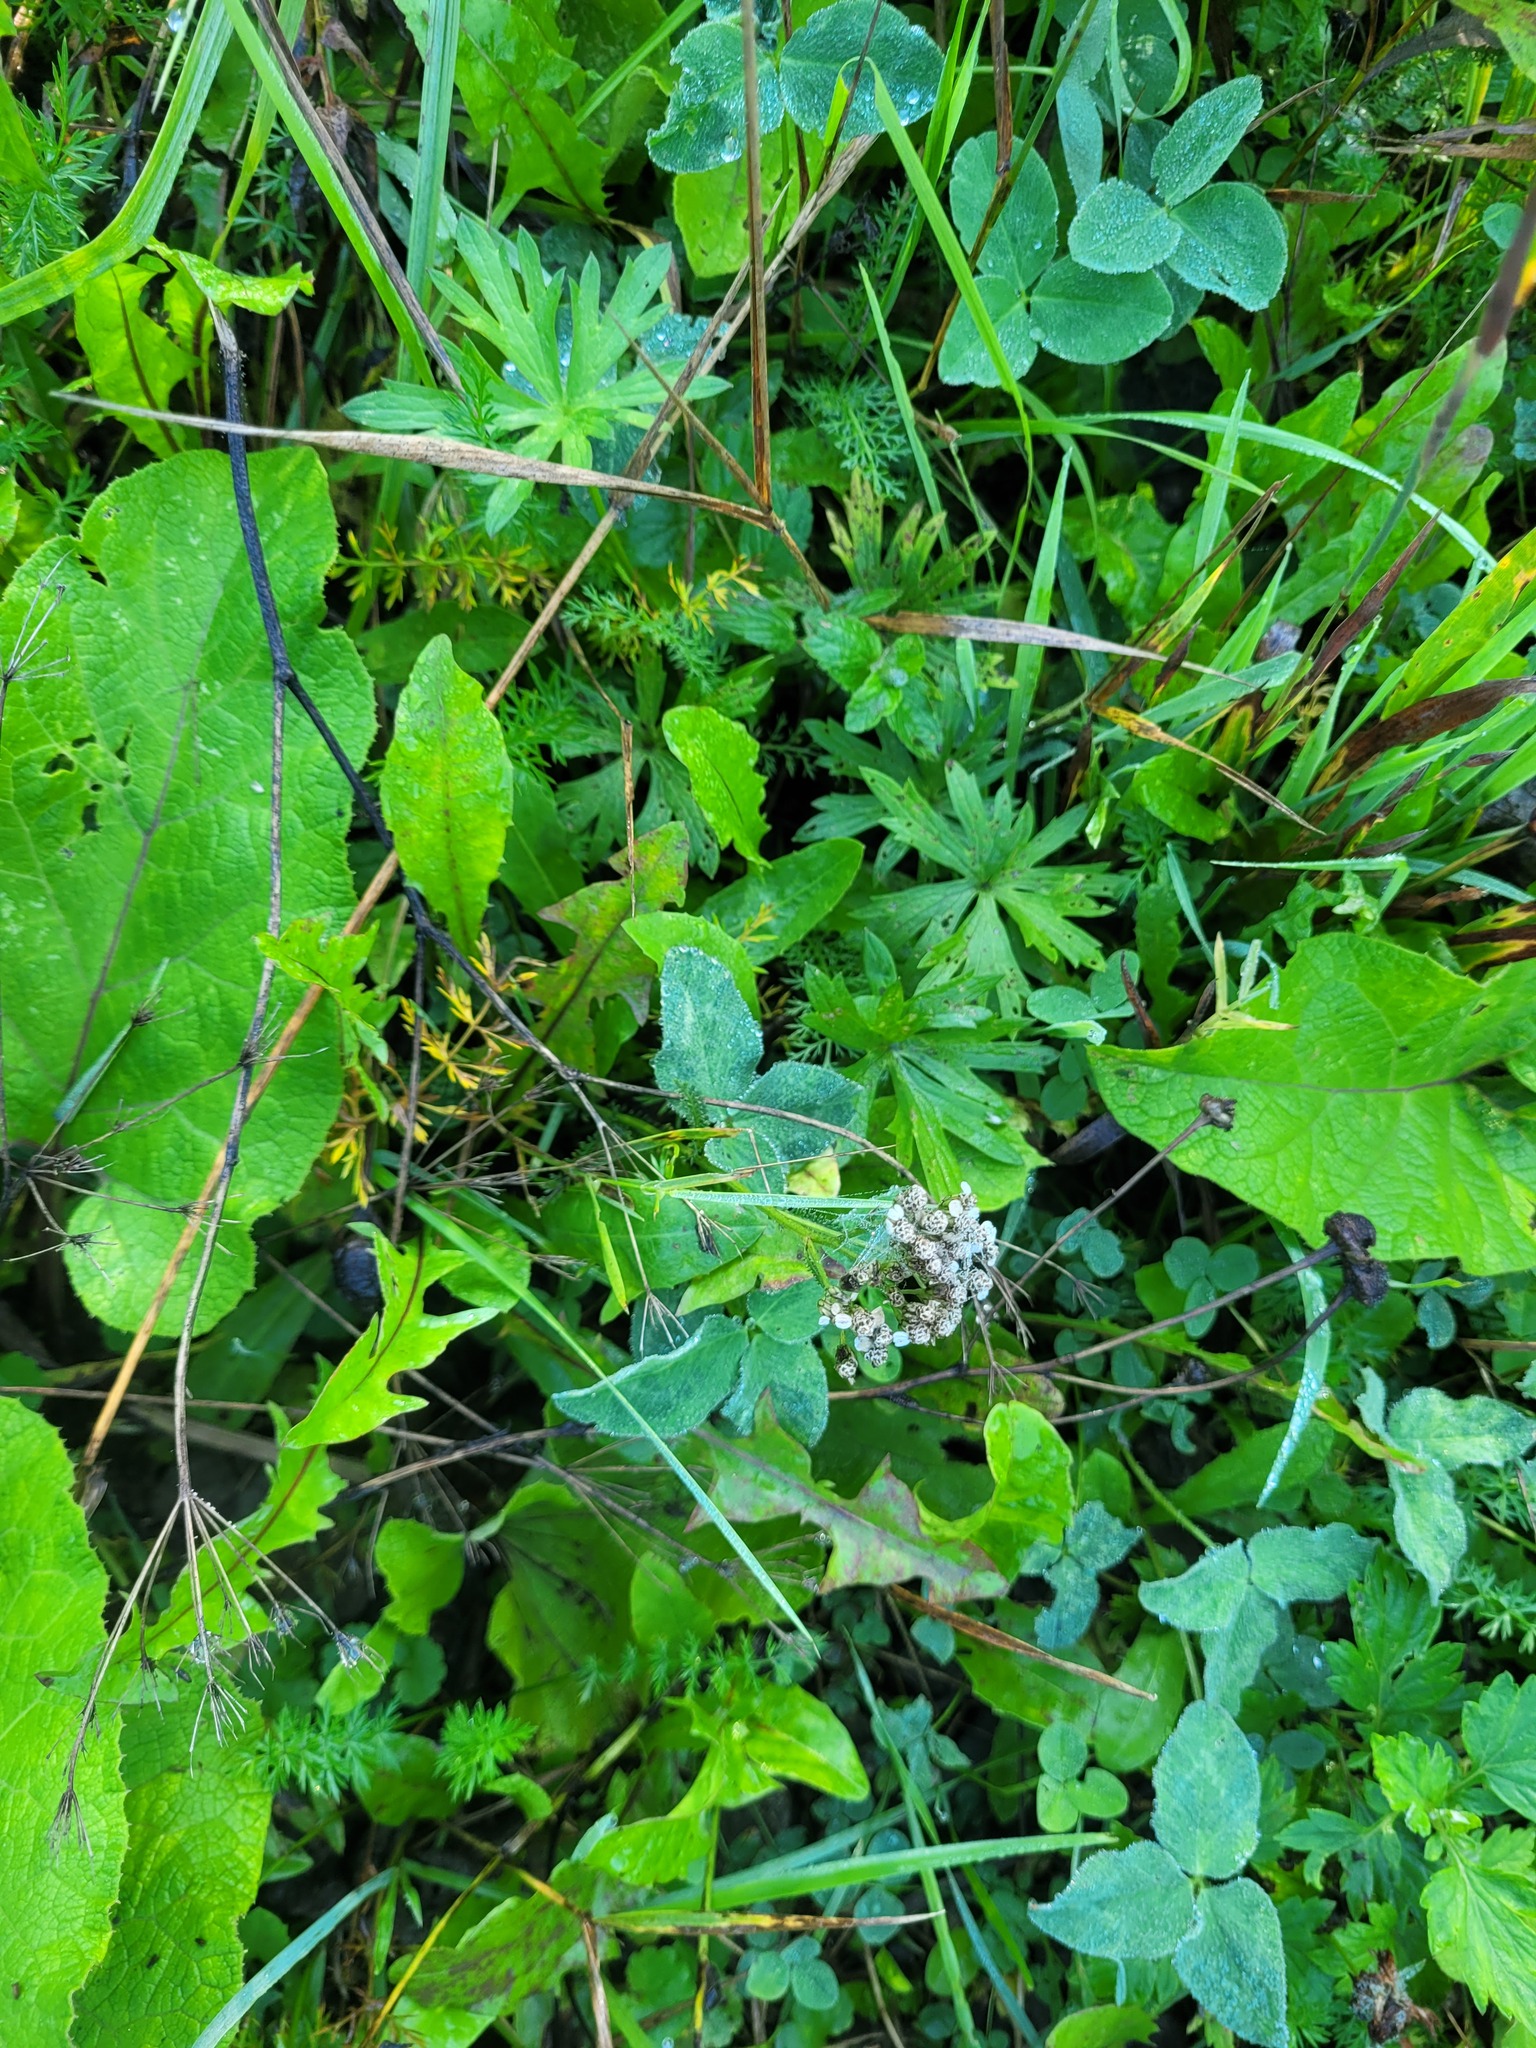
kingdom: Plantae
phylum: Tracheophyta
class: Magnoliopsida
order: Asterales
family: Asteraceae
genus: Achillea
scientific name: Achillea millefolium
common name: Yarrow
